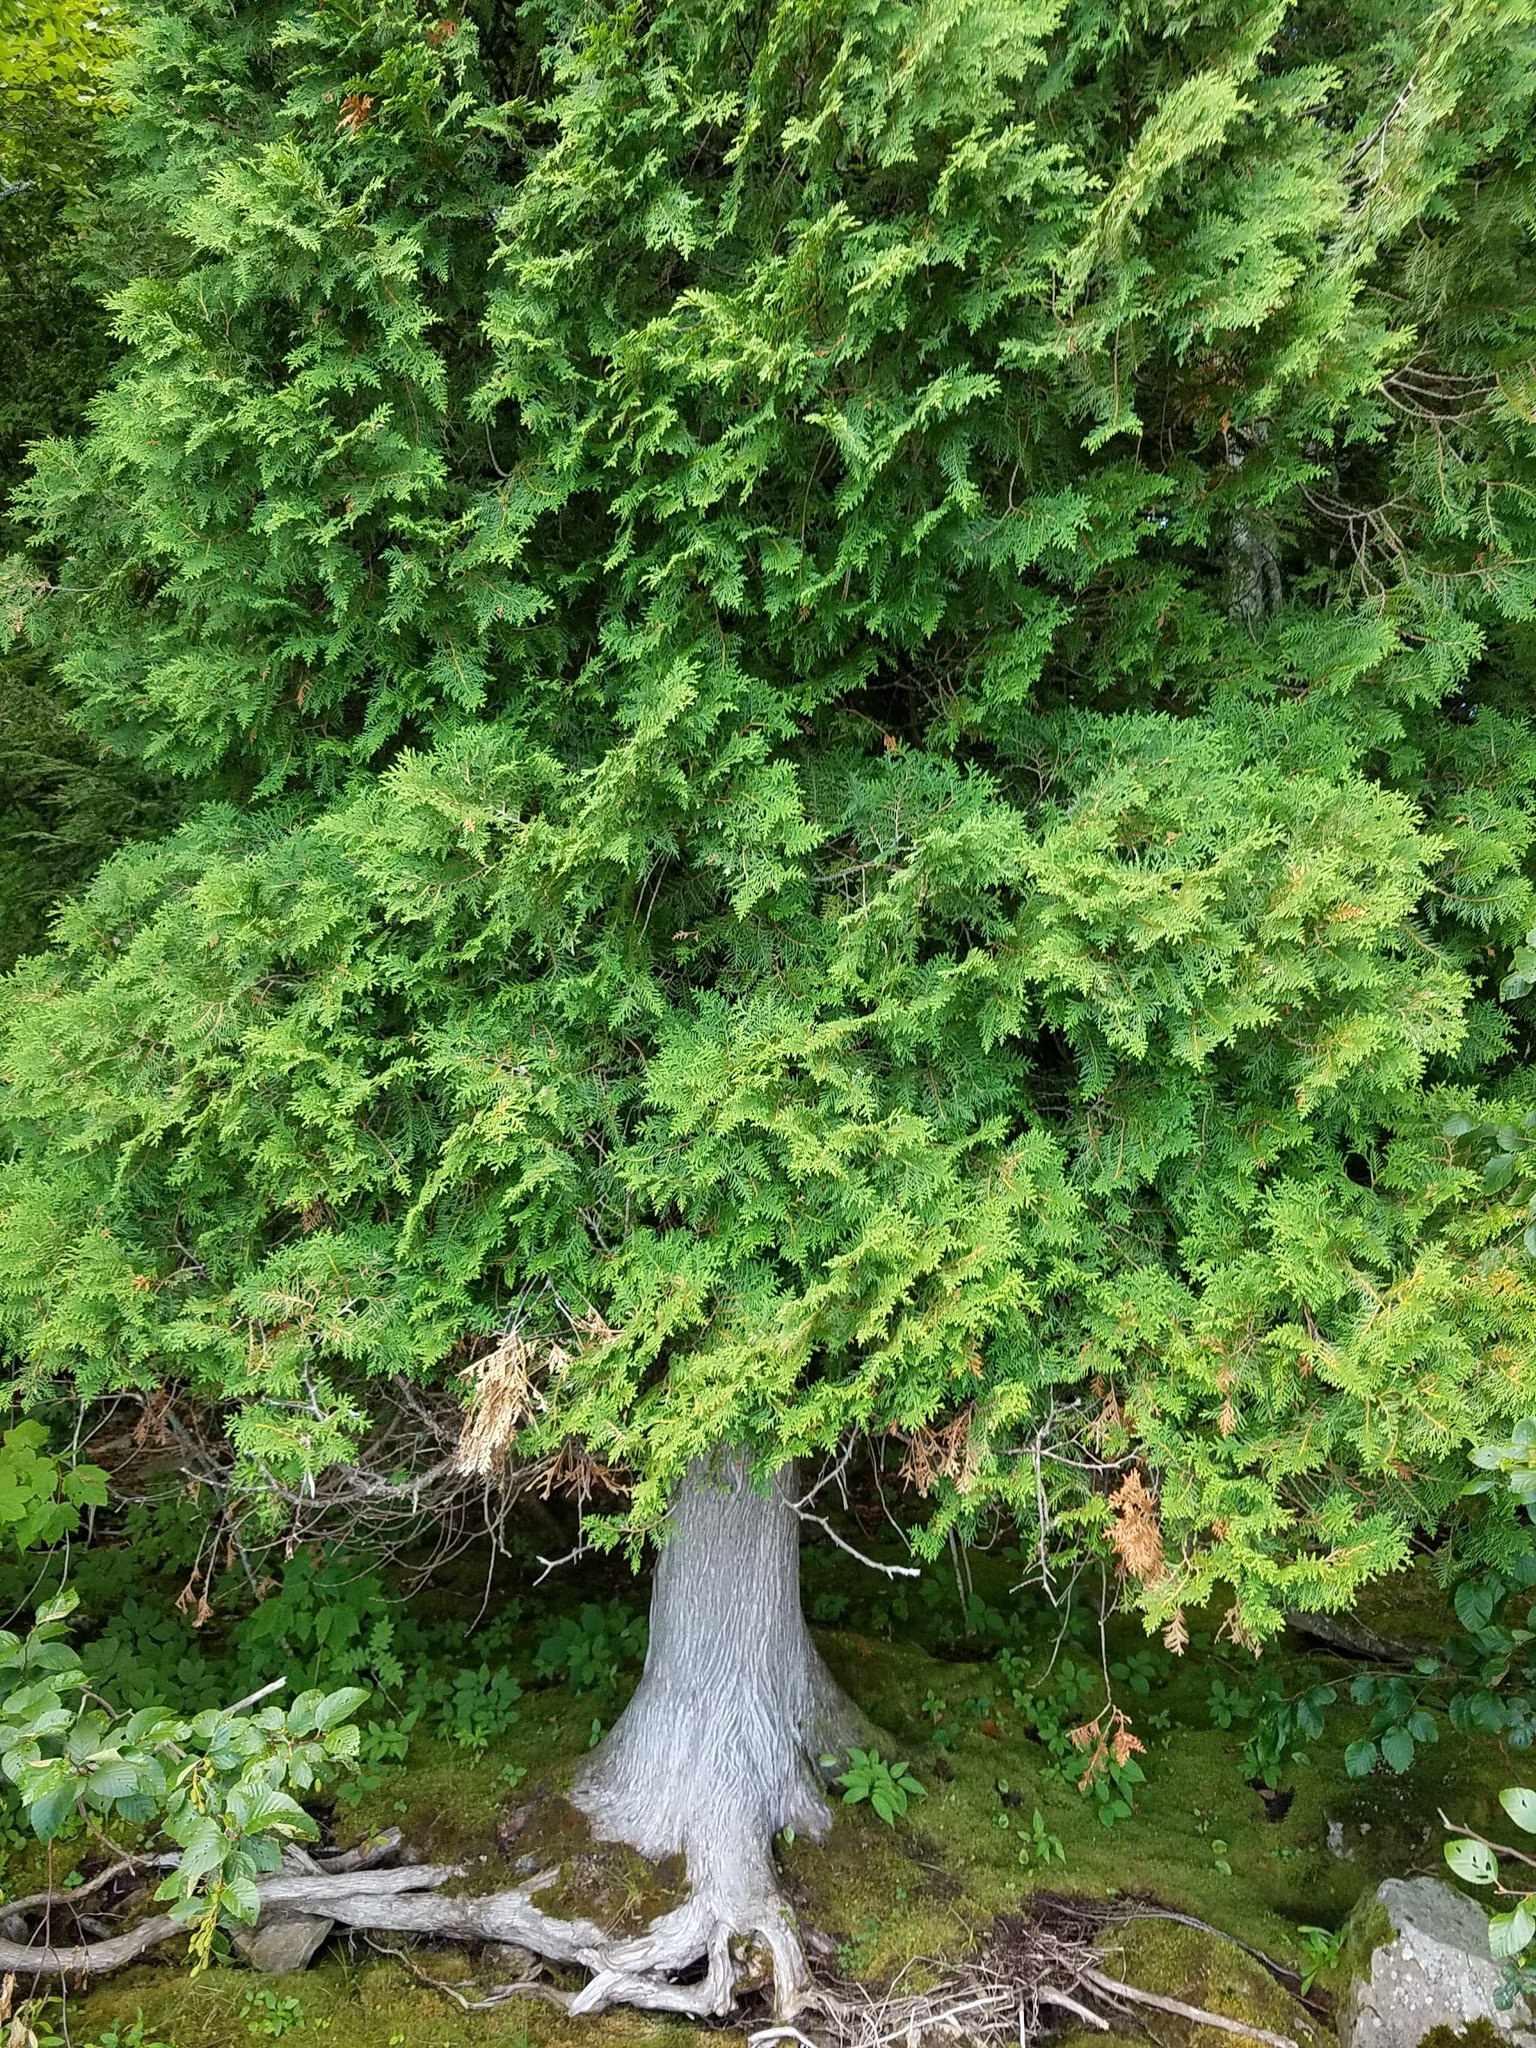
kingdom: Plantae
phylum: Tracheophyta
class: Pinopsida
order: Pinales
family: Cupressaceae
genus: Thuja
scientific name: Thuja occidentalis
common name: Northern white-cedar
